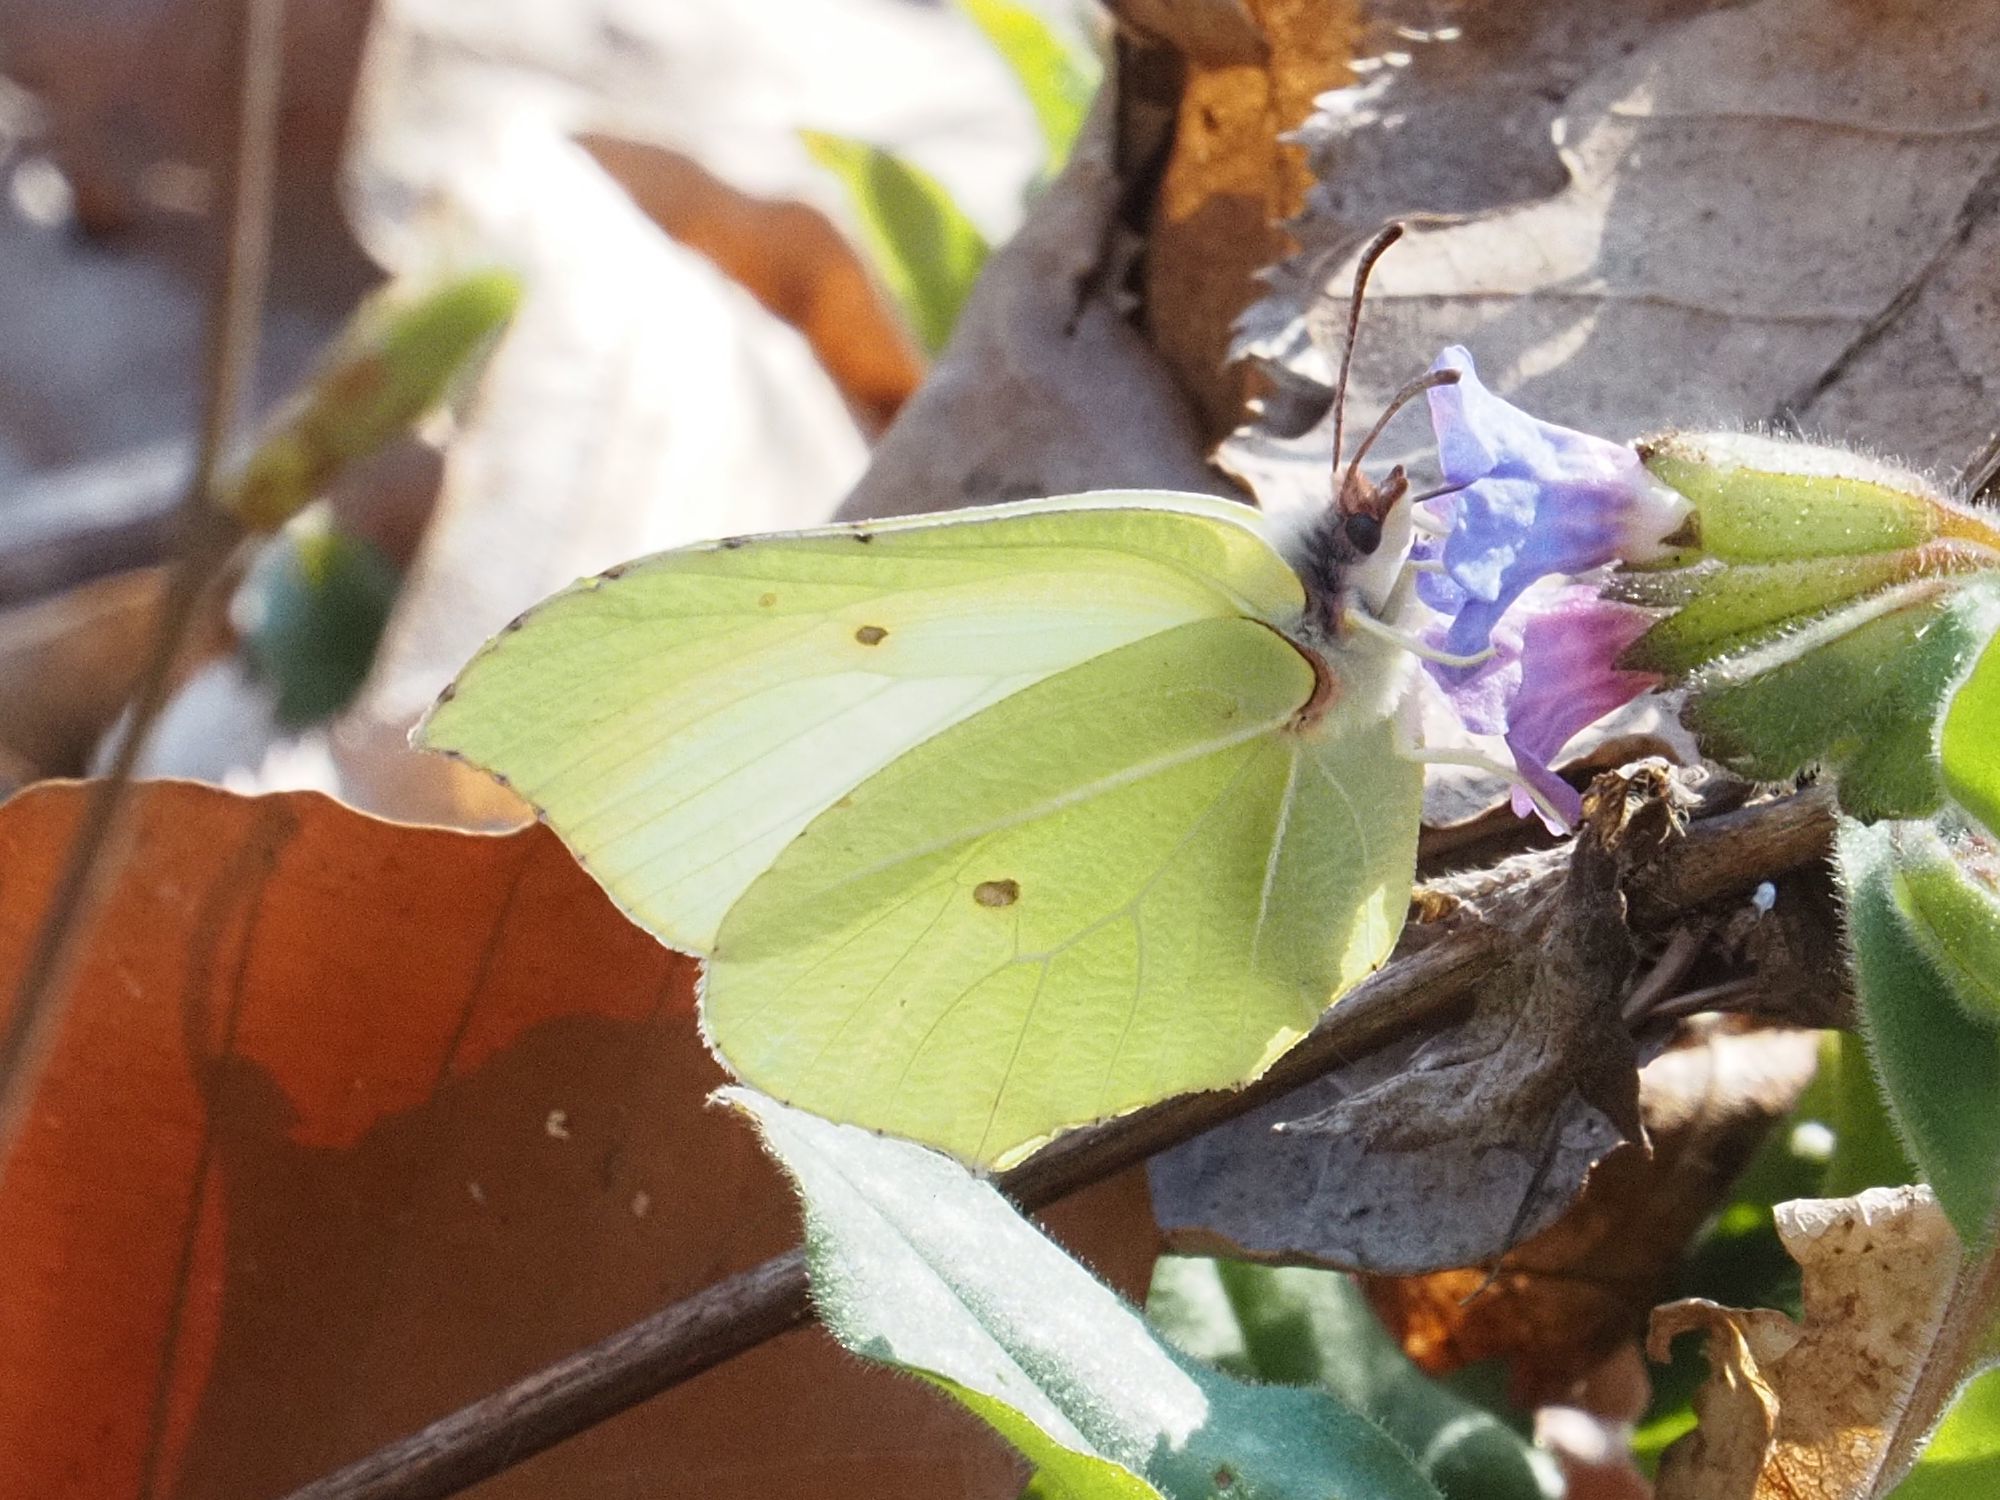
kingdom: Animalia
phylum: Arthropoda
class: Insecta
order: Lepidoptera
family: Pieridae
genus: Gonepteryx
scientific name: Gonepteryx rhamni
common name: Brimstone
